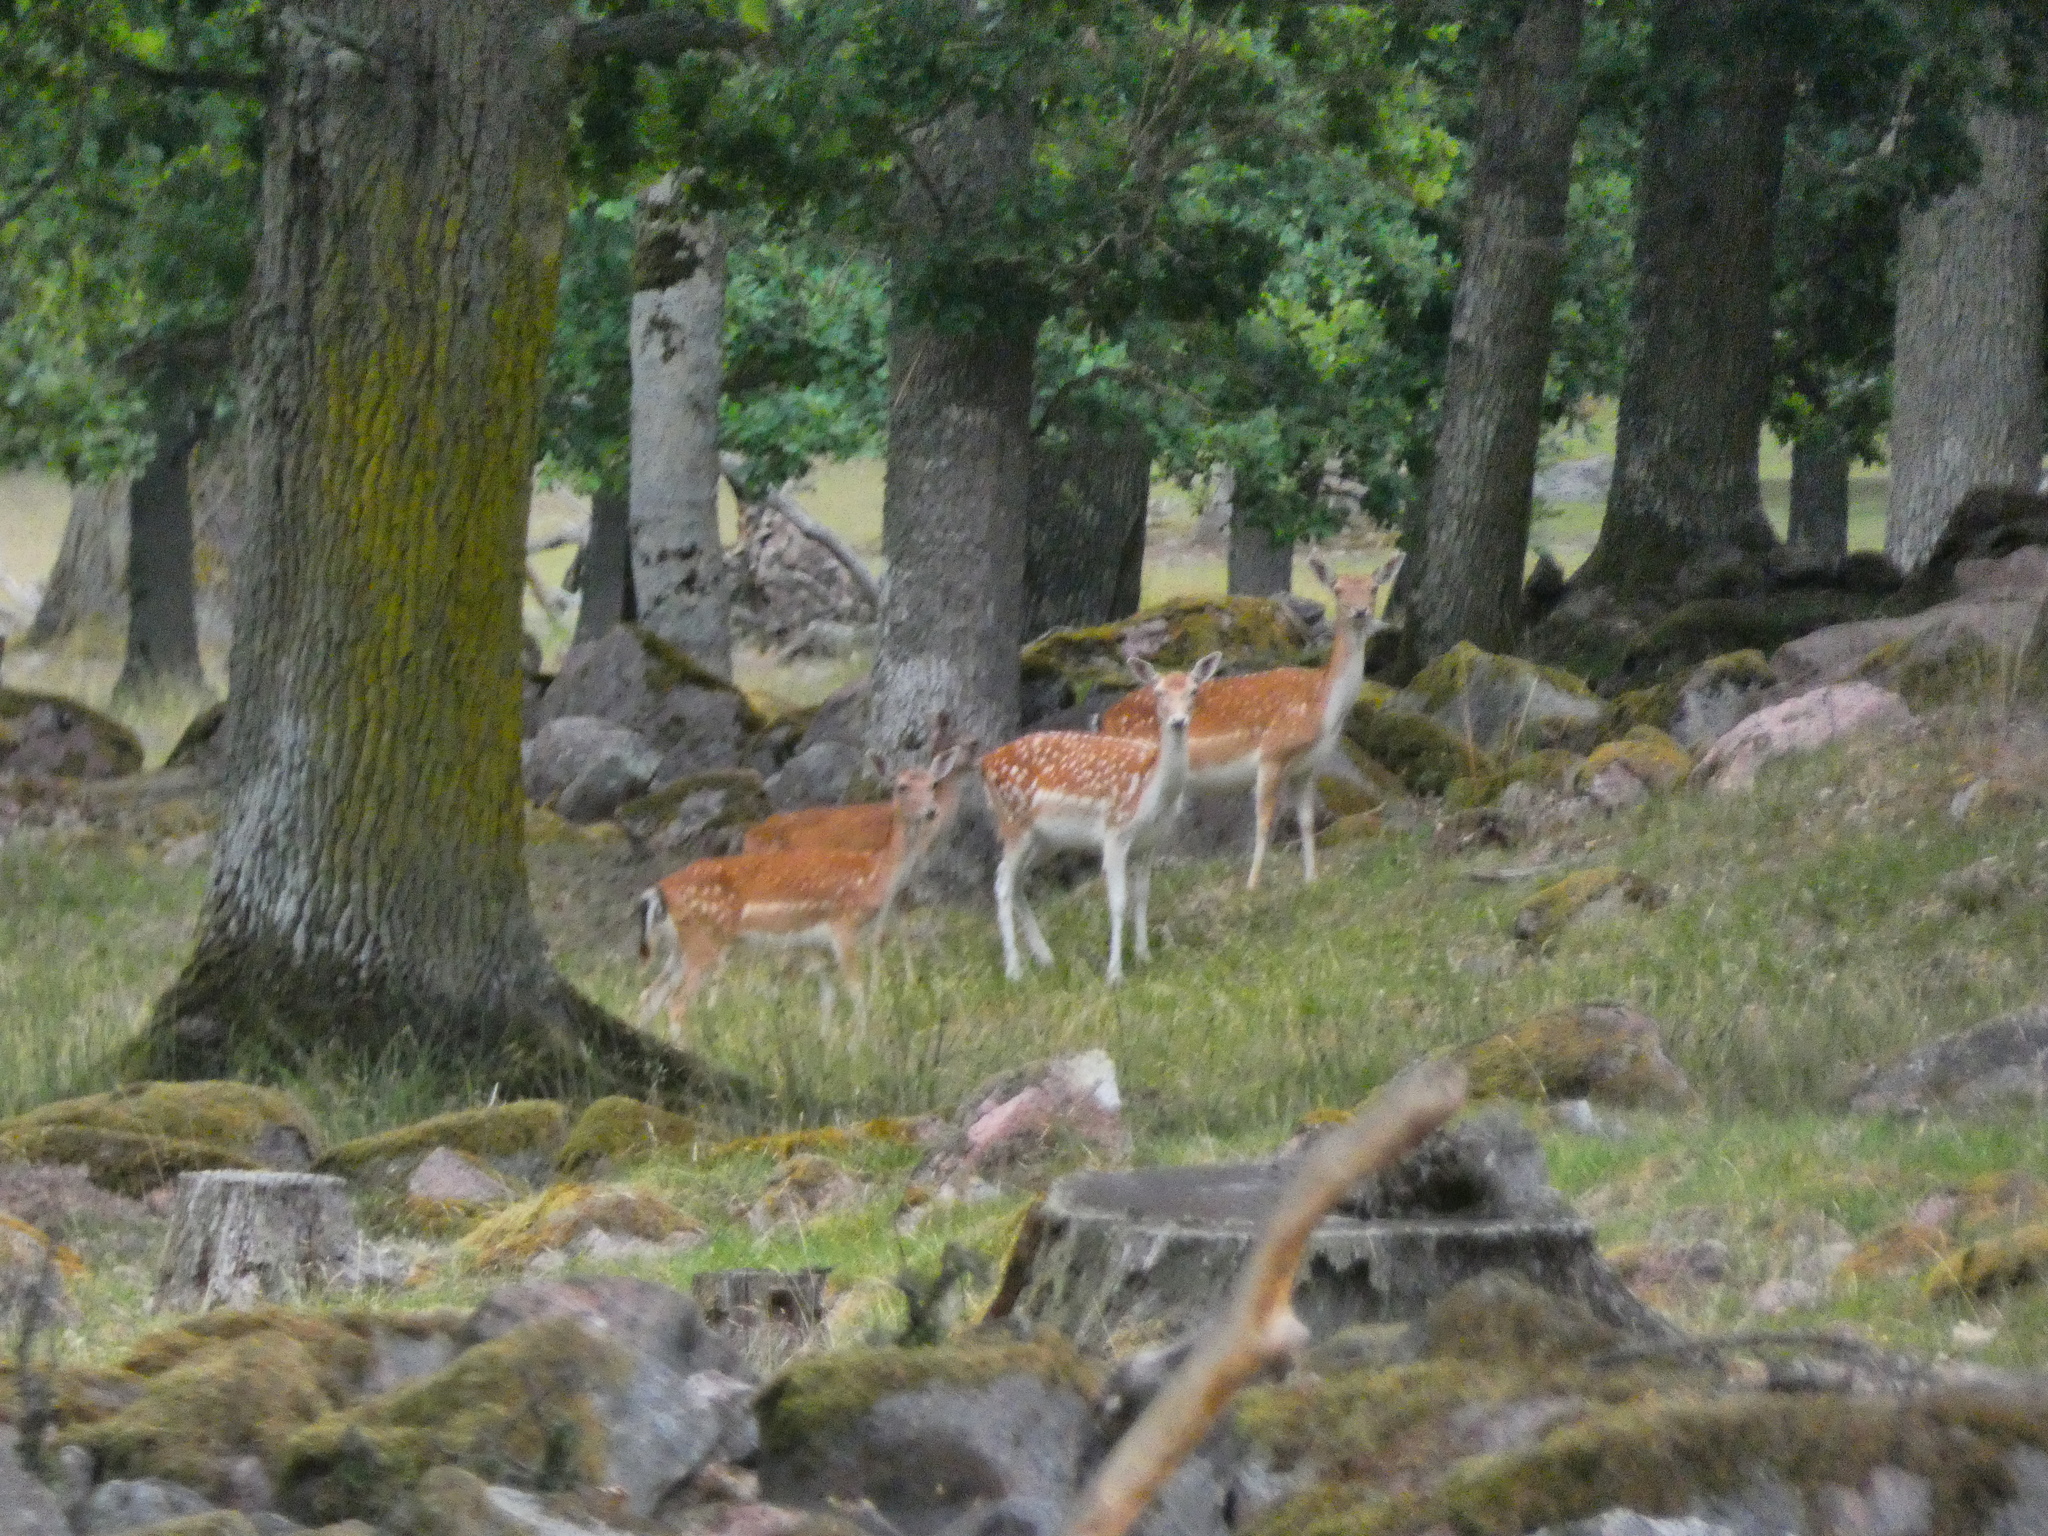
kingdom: Animalia
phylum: Chordata
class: Mammalia
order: Artiodactyla
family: Cervidae
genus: Dama
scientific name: Dama dama
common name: Fallow deer
